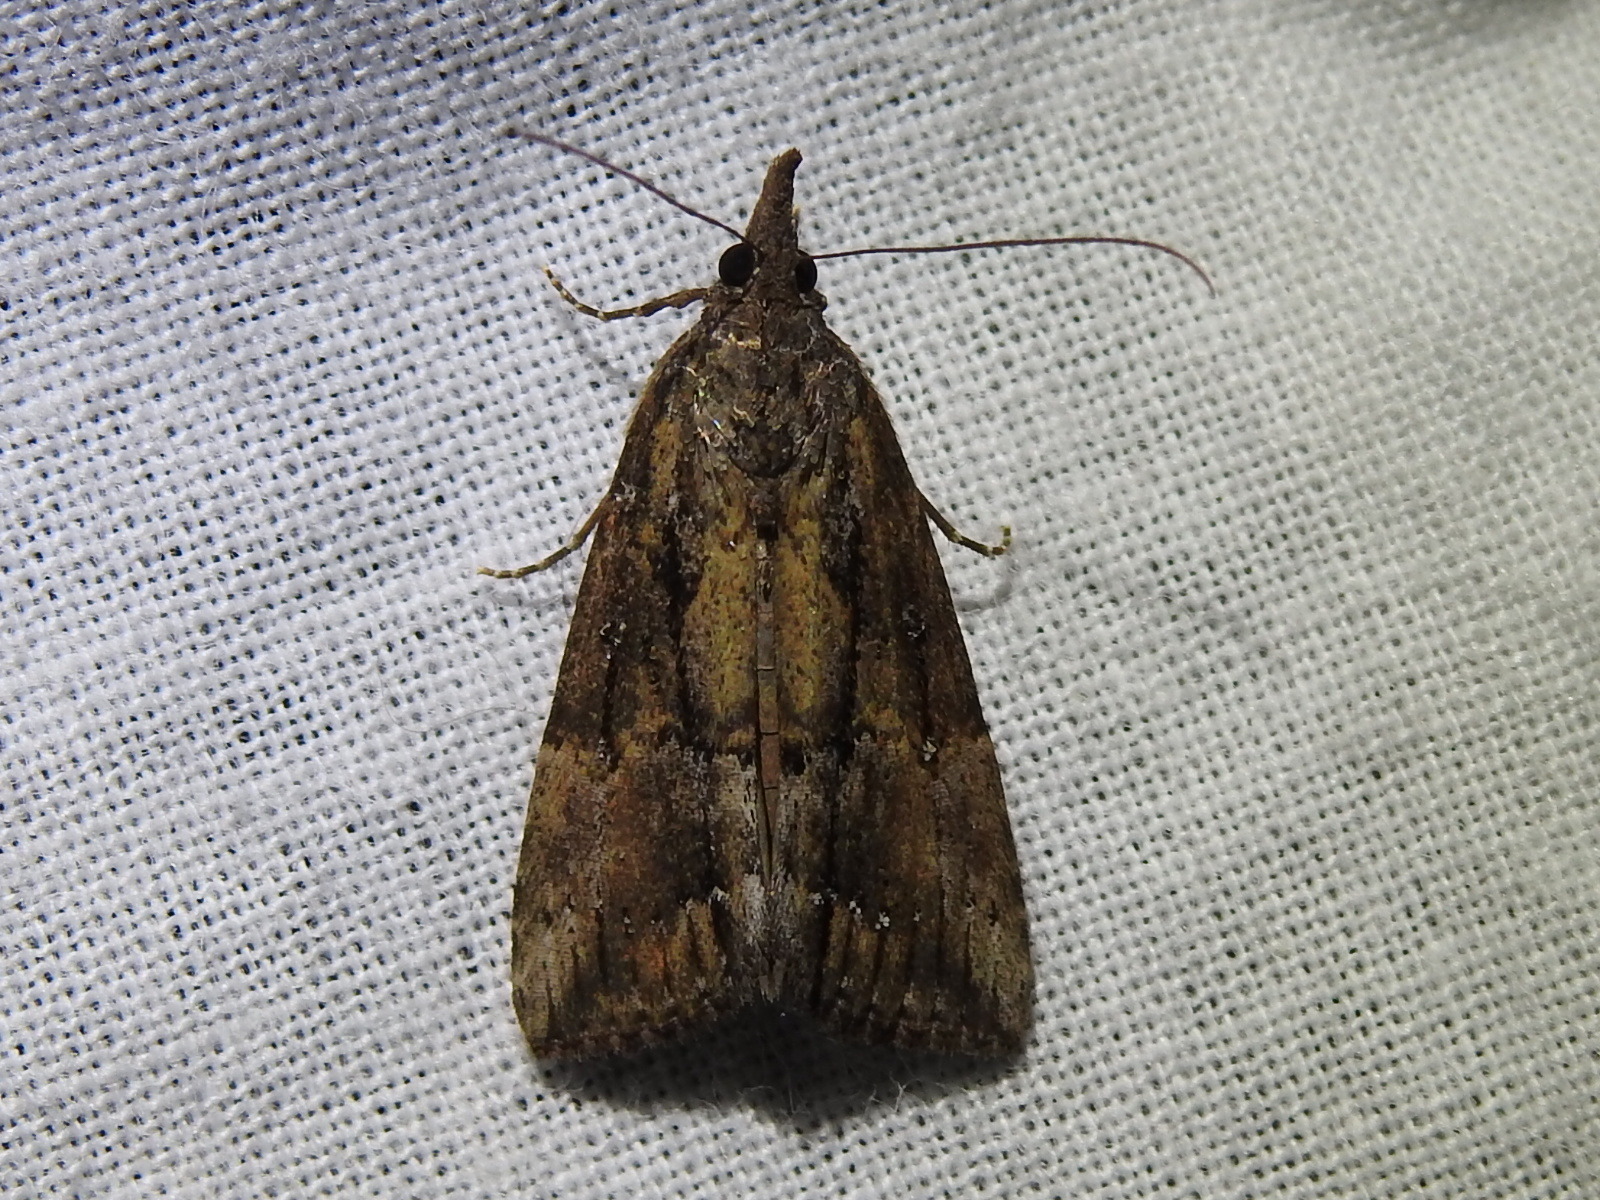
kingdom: Animalia
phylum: Arthropoda
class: Insecta
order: Lepidoptera
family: Erebidae
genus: Hypena
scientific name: Hypena scabra
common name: Green cloverworm
